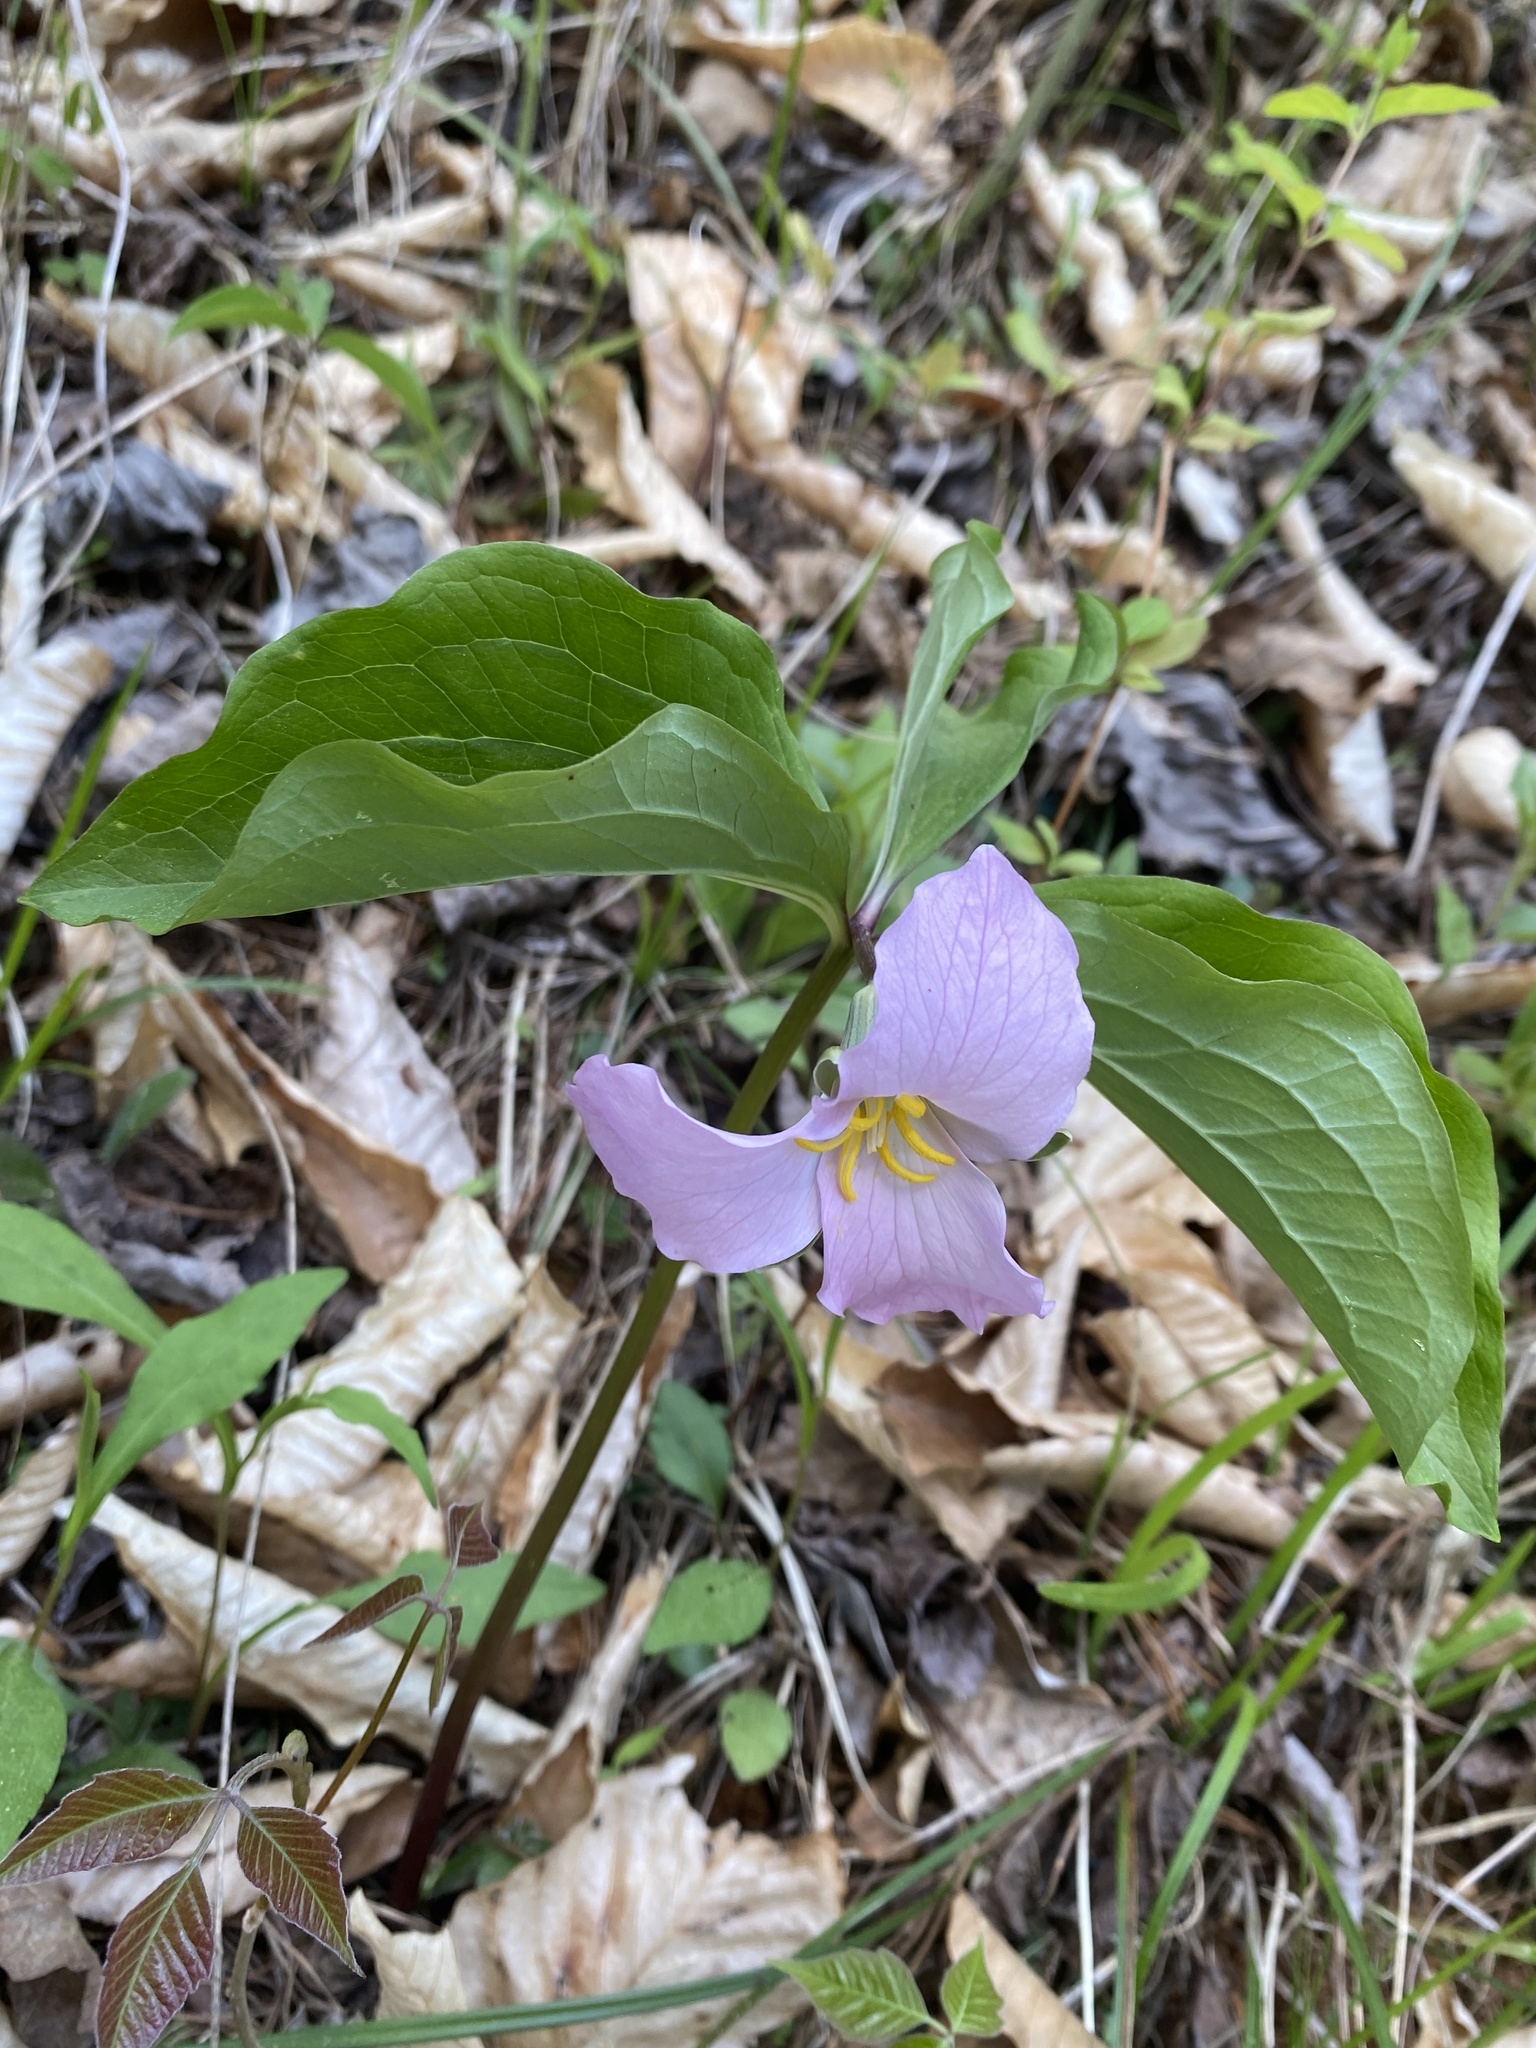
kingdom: Plantae
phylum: Tracheophyta
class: Liliopsida
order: Liliales
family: Melanthiaceae
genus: Trillium
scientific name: Trillium catesbaei
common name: Bashful trillium
